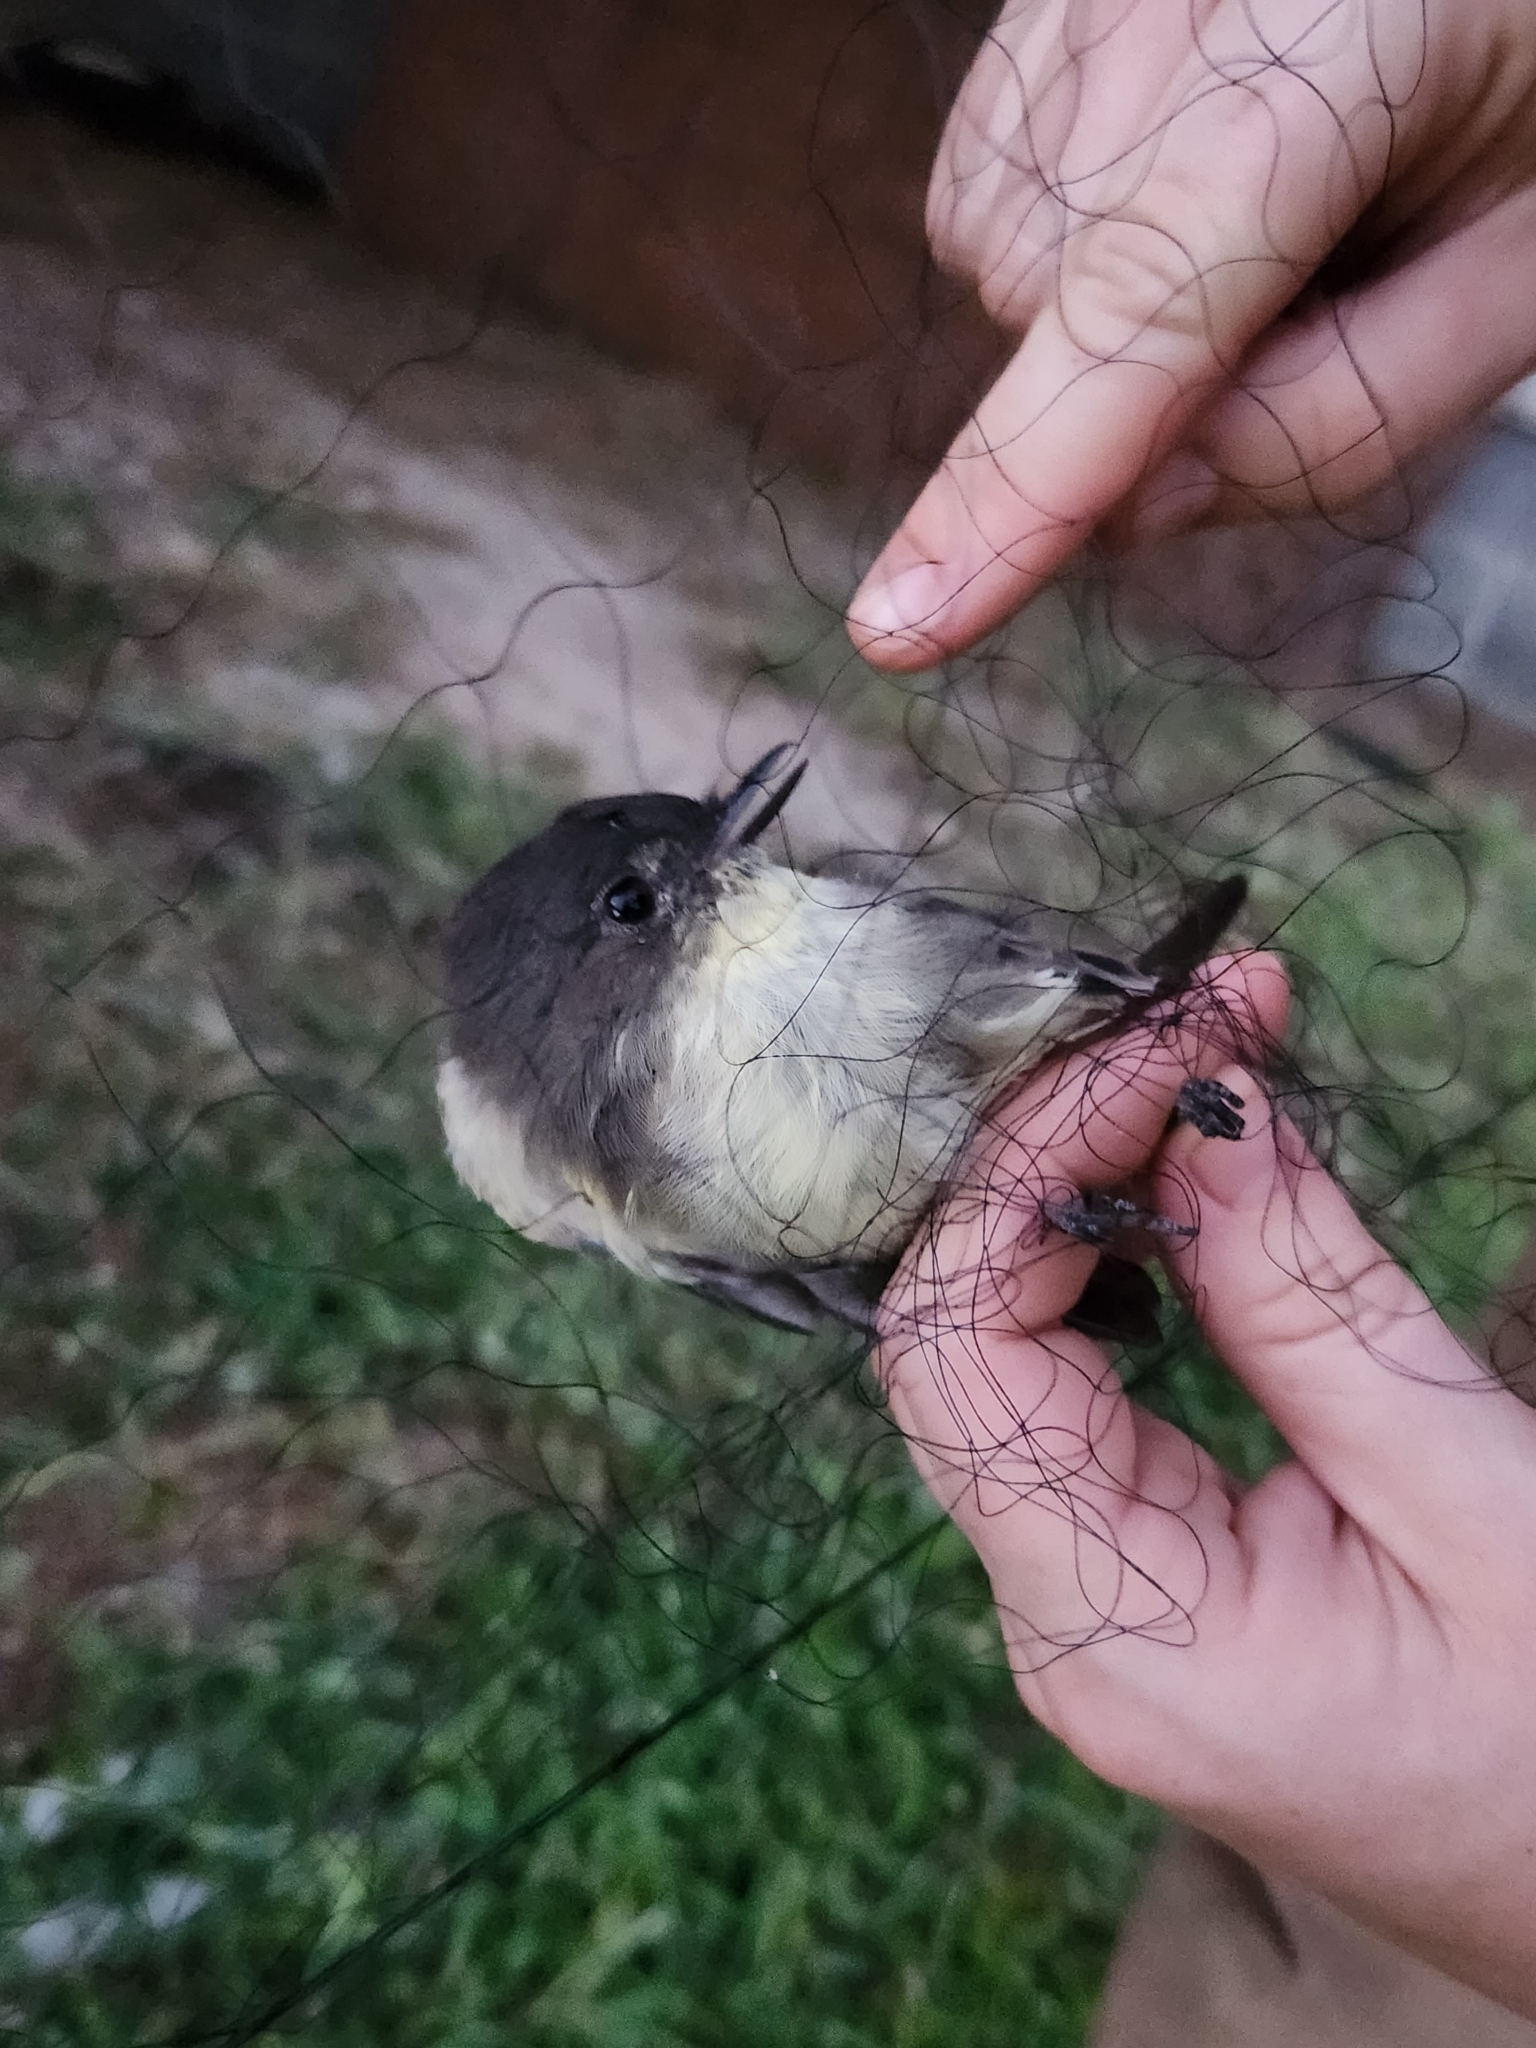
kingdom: Animalia
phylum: Chordata
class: Aves
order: Passeriformes
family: Tyrannidae
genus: Sayornis
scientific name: Sayornis phoebe
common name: Eastern phoebe
